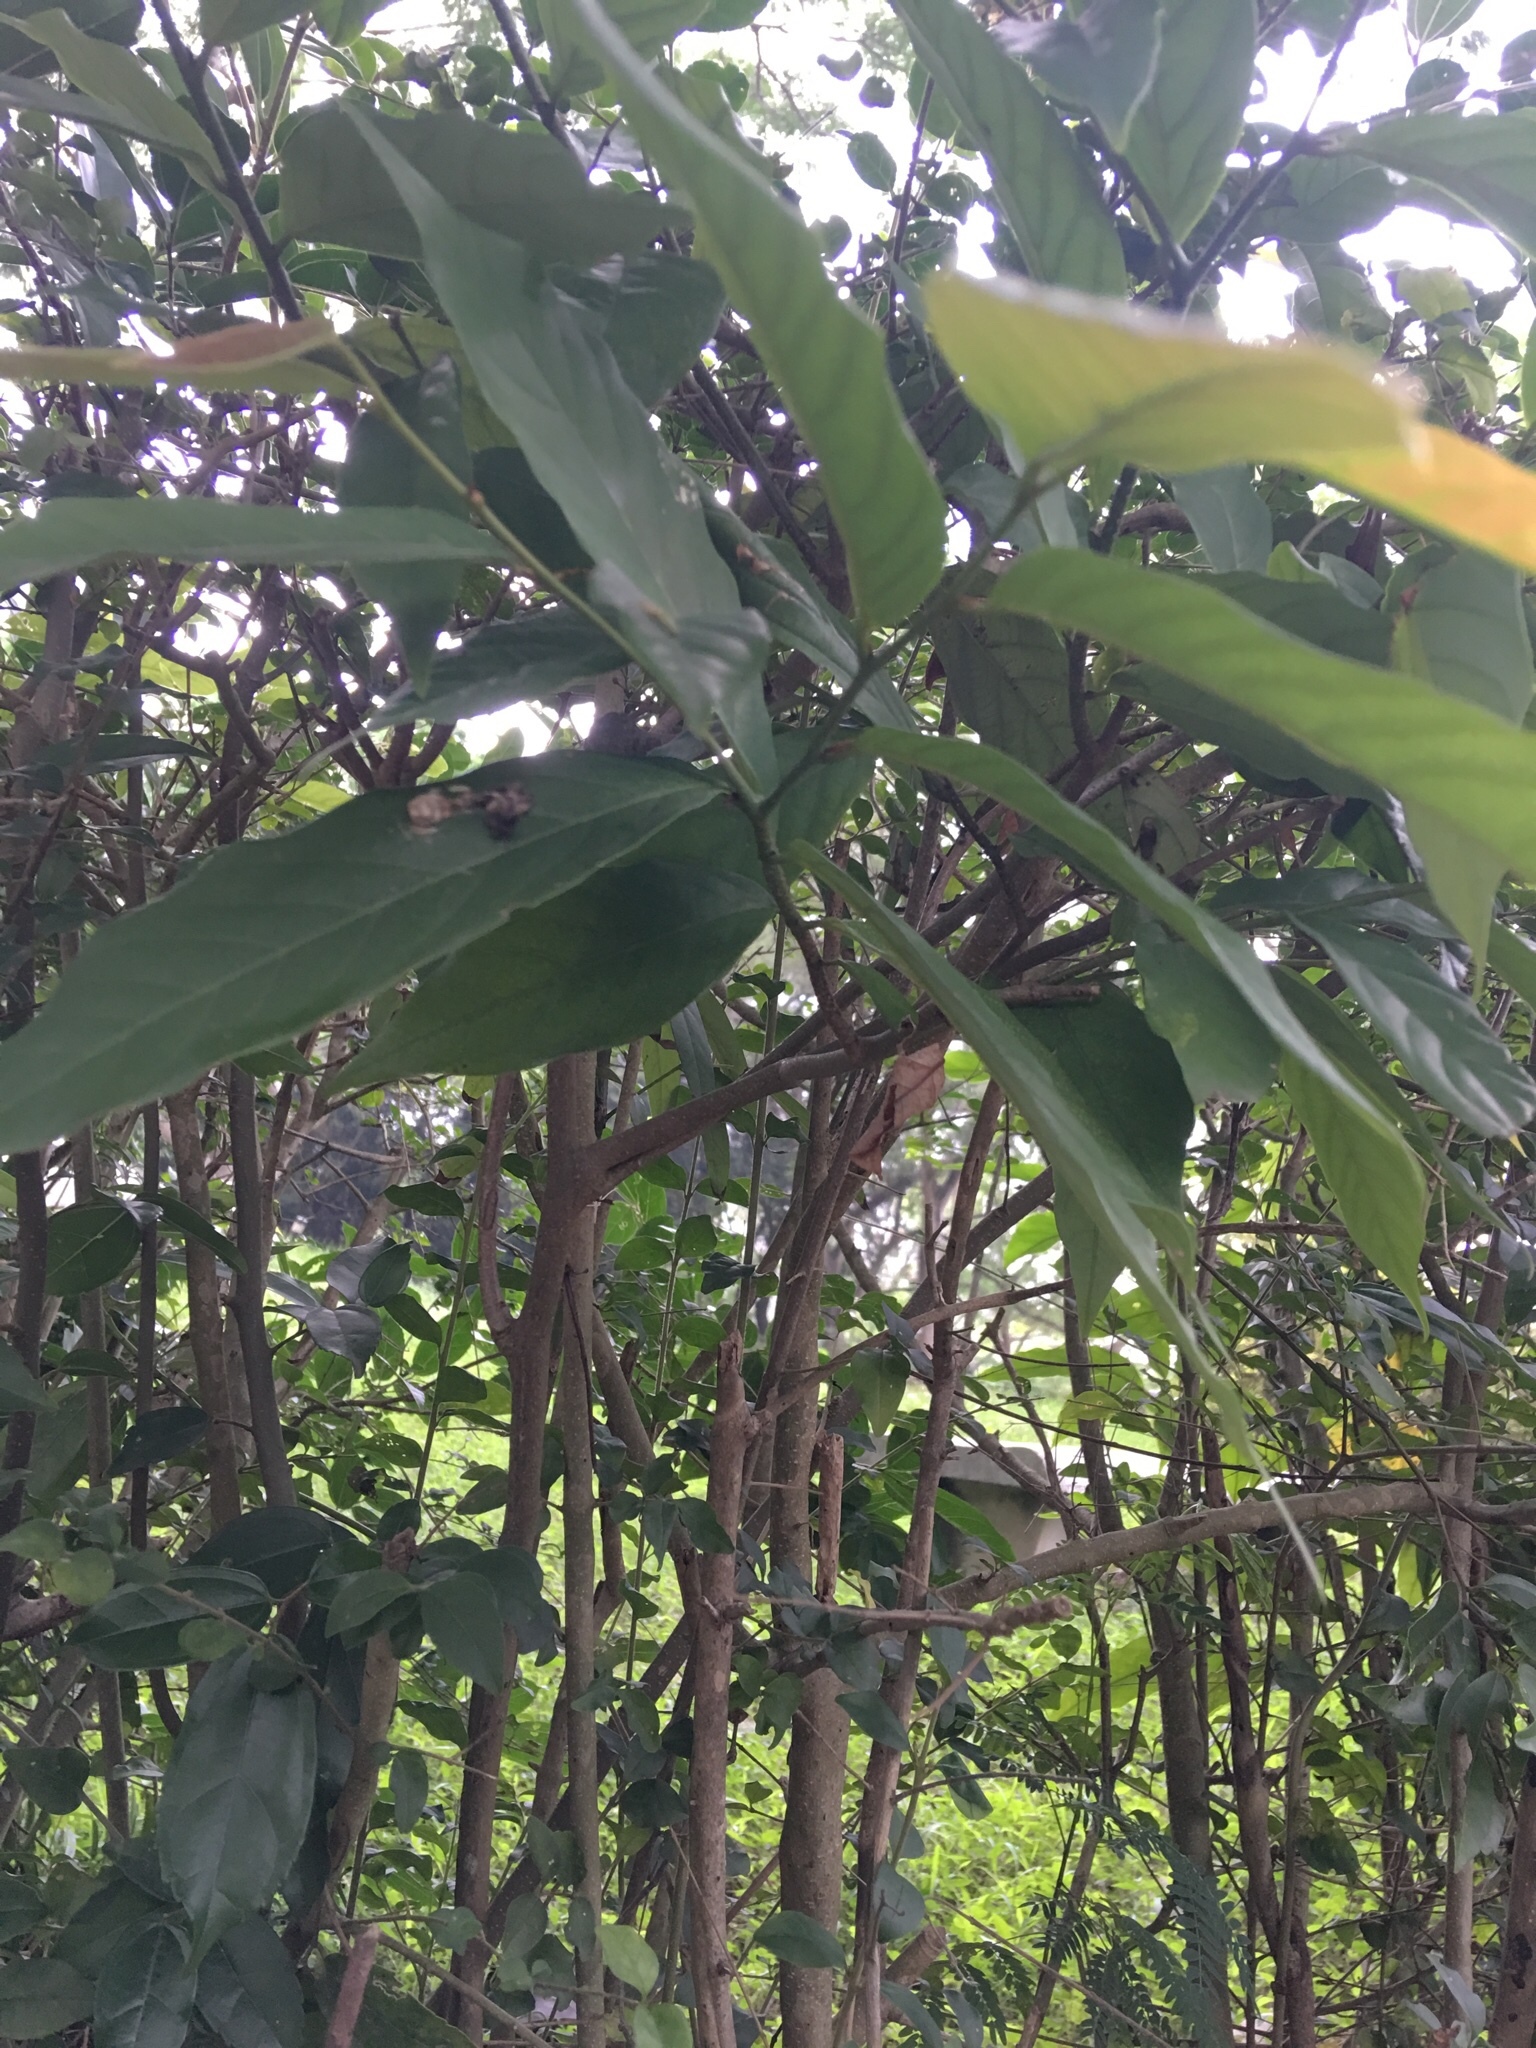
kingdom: Plantae
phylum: Tracheophyta
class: Magnoliopsida
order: Magnoliales
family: Annonaceae
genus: Desmos
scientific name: Desmos chinensis
